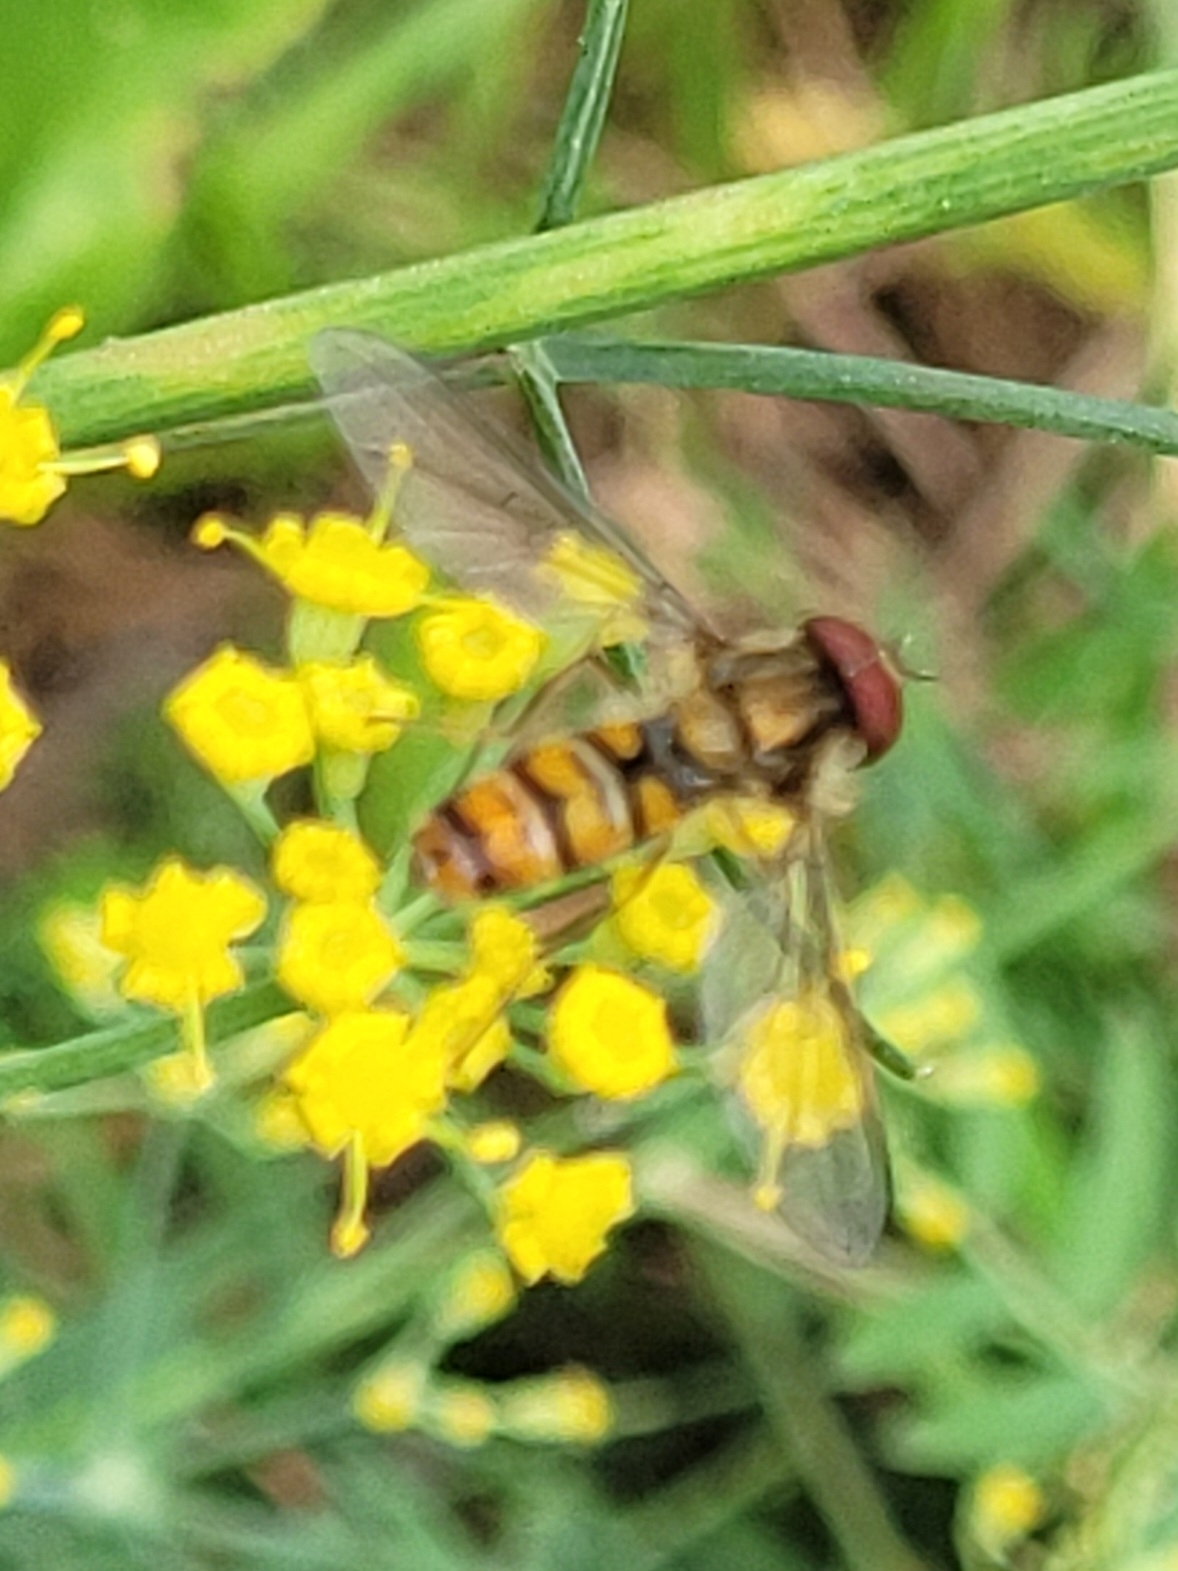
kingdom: Animalia
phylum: Arthropoda
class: Insecta
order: Diptera
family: Syrphidae
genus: Episyrphus
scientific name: Episyrphus balteatus
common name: Marmalade hoverfly
